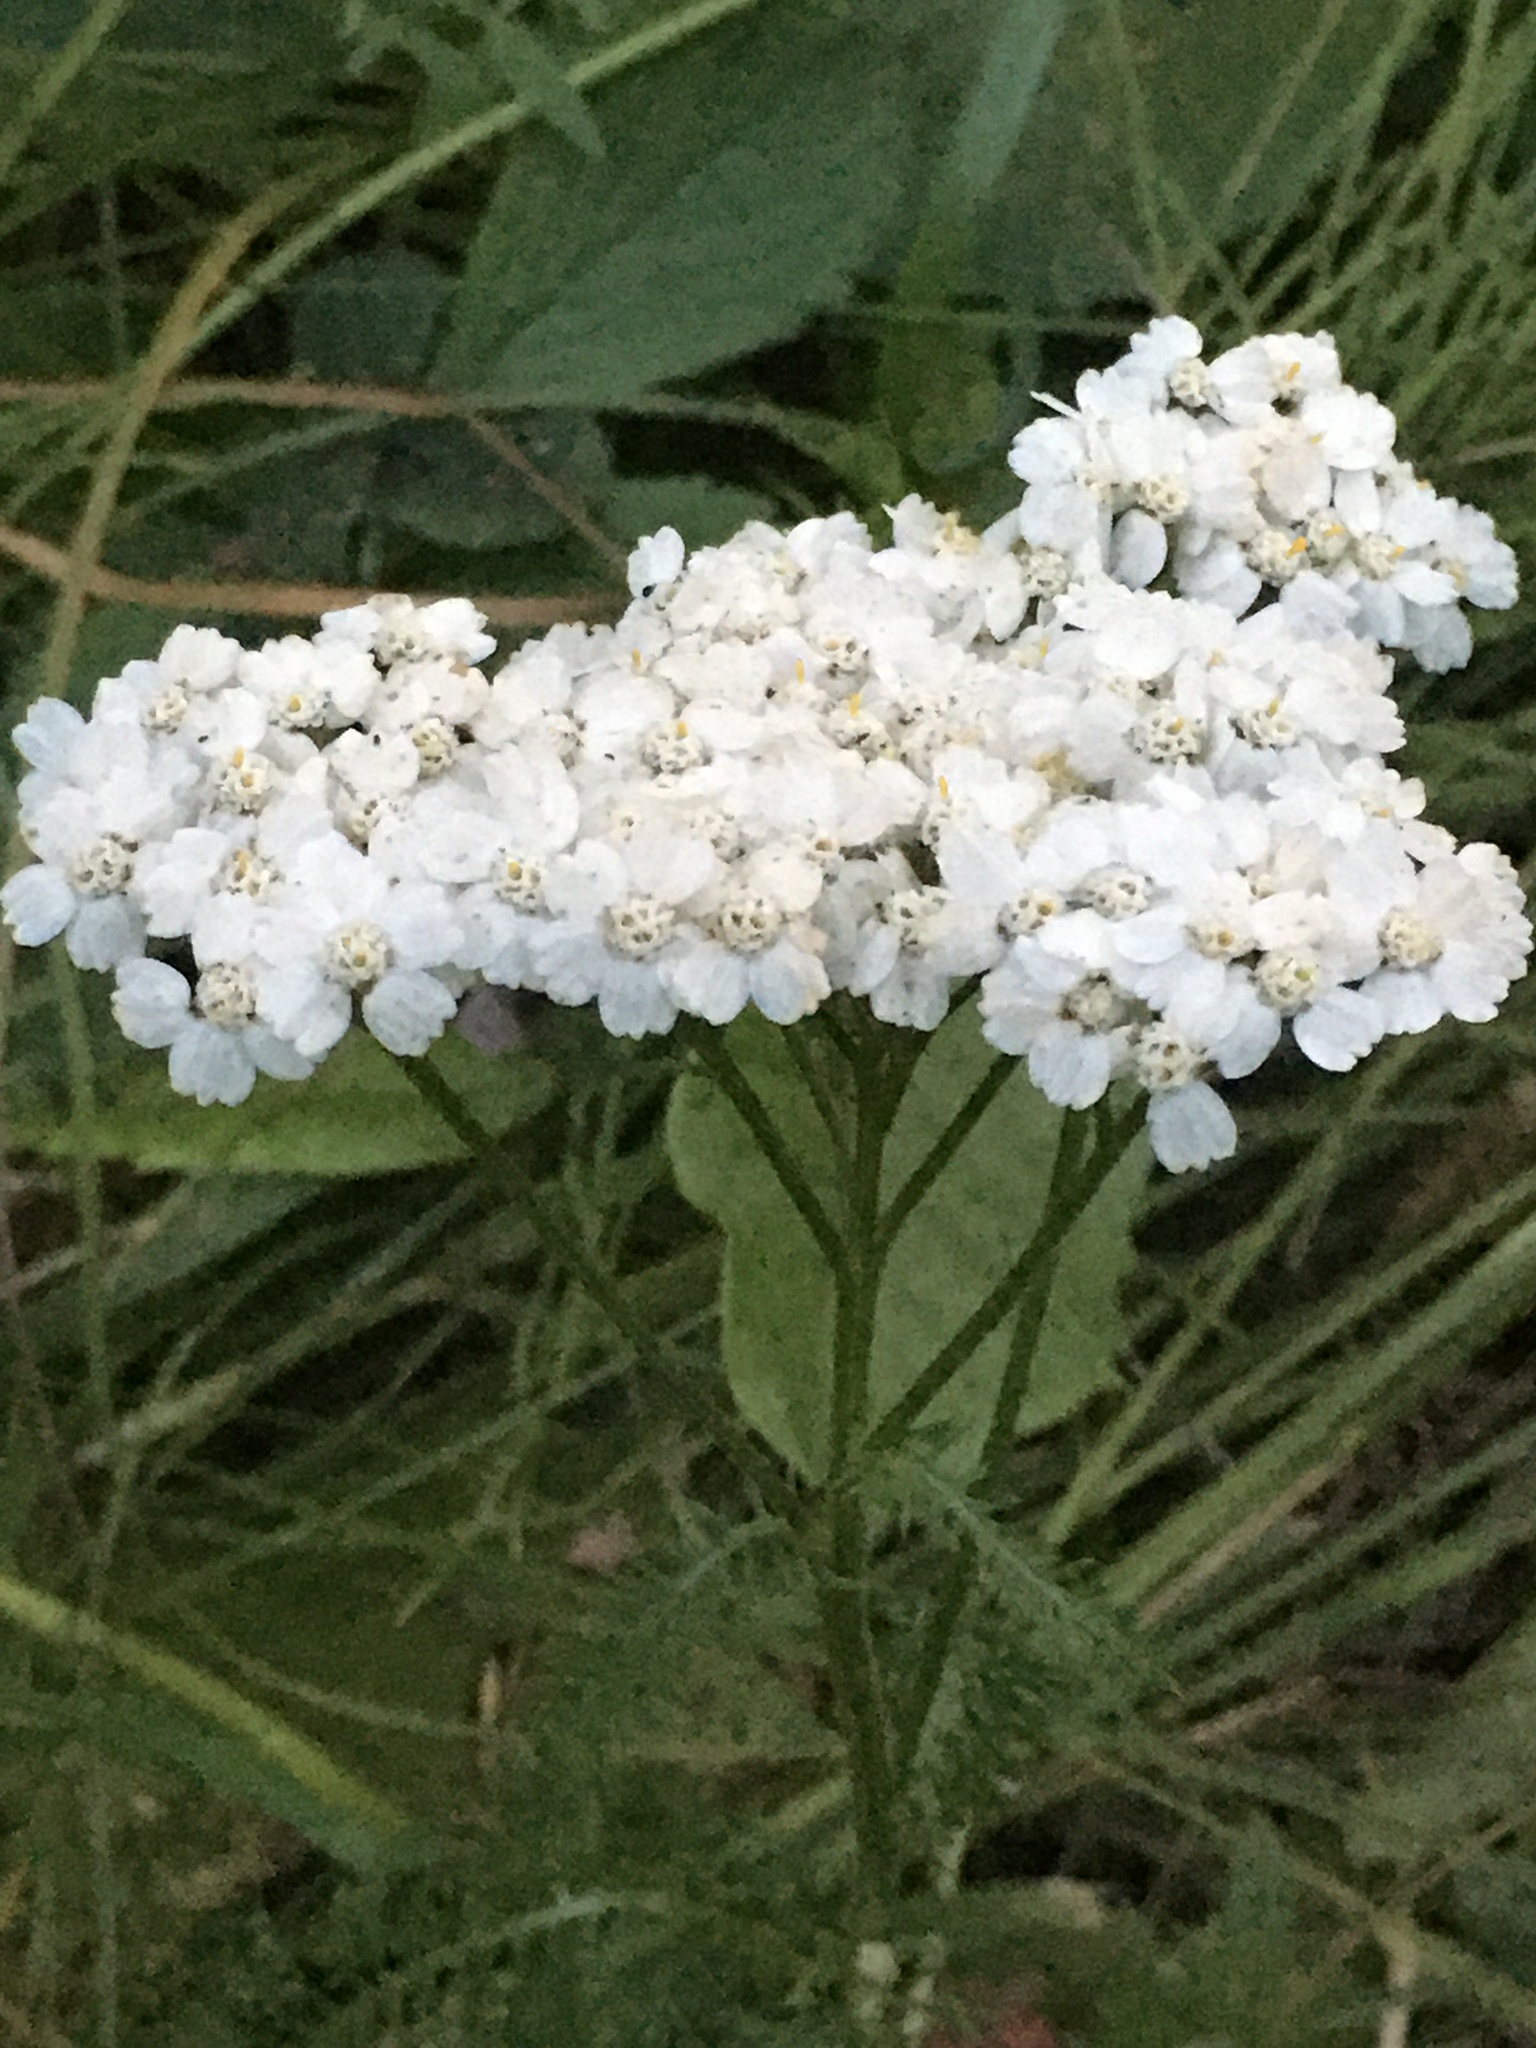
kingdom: Plantae
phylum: Tracheophyta
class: Magnoliopsida
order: Asterales
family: Asteraceae
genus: Achillea
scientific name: Achillea millefolium
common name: Yarrow
